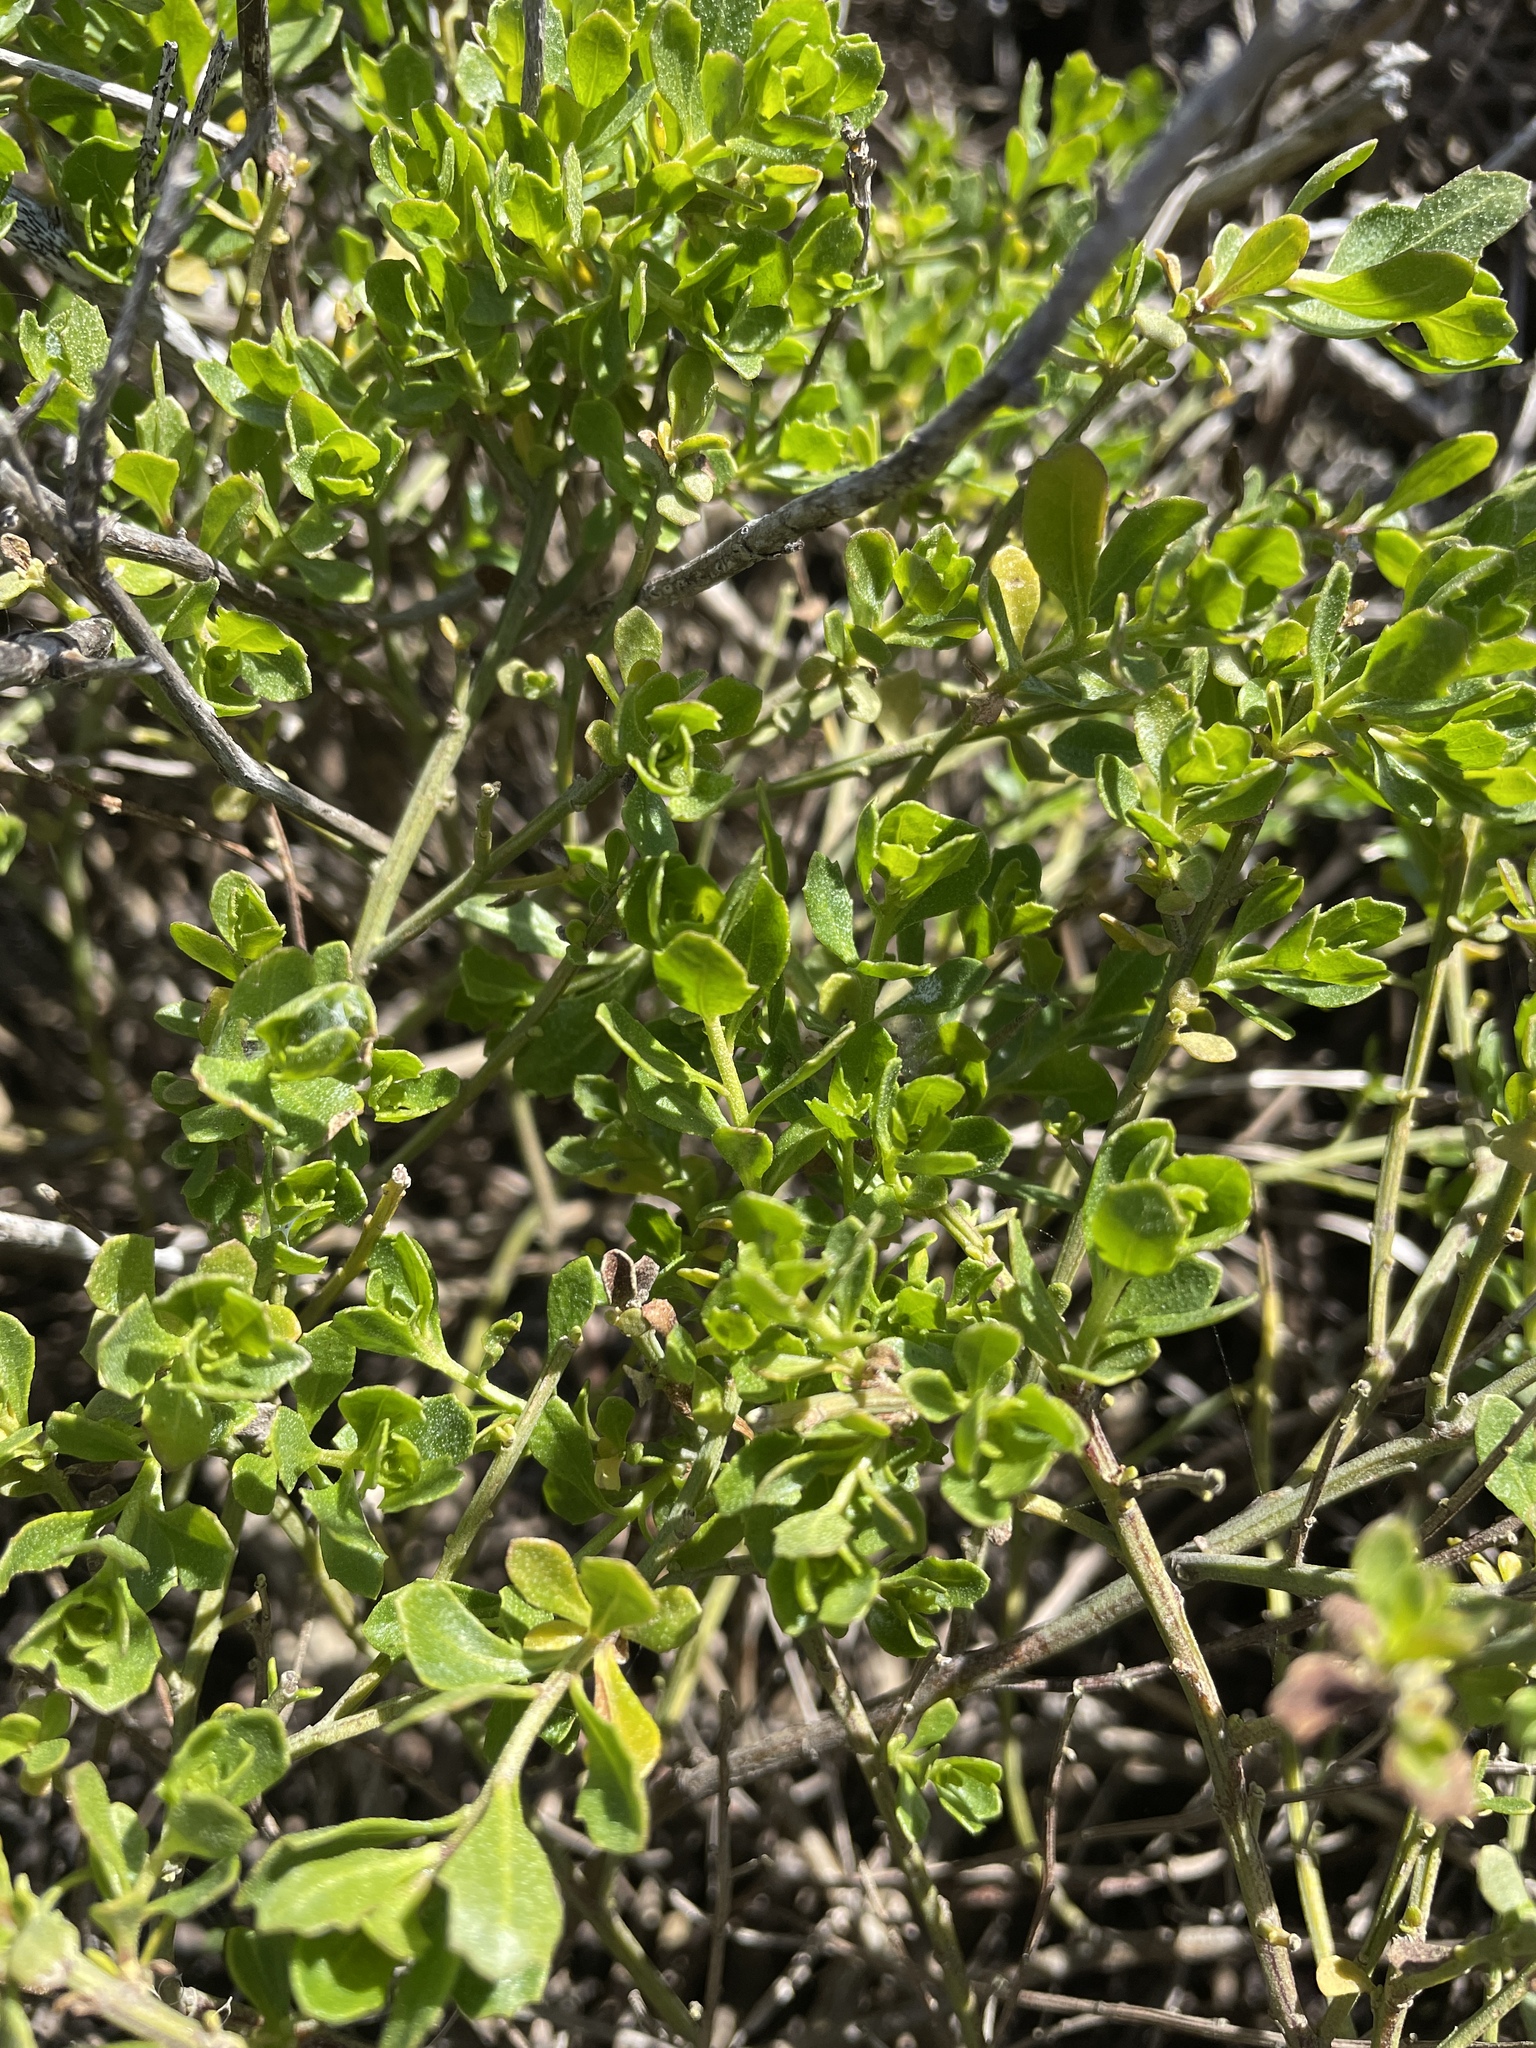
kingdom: Plantae
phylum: Tracheophyta
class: Magnoliopsida
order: Asterales
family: Asteraceae
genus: Baccharis
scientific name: Baccharis pilularis
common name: Coyotebrush
